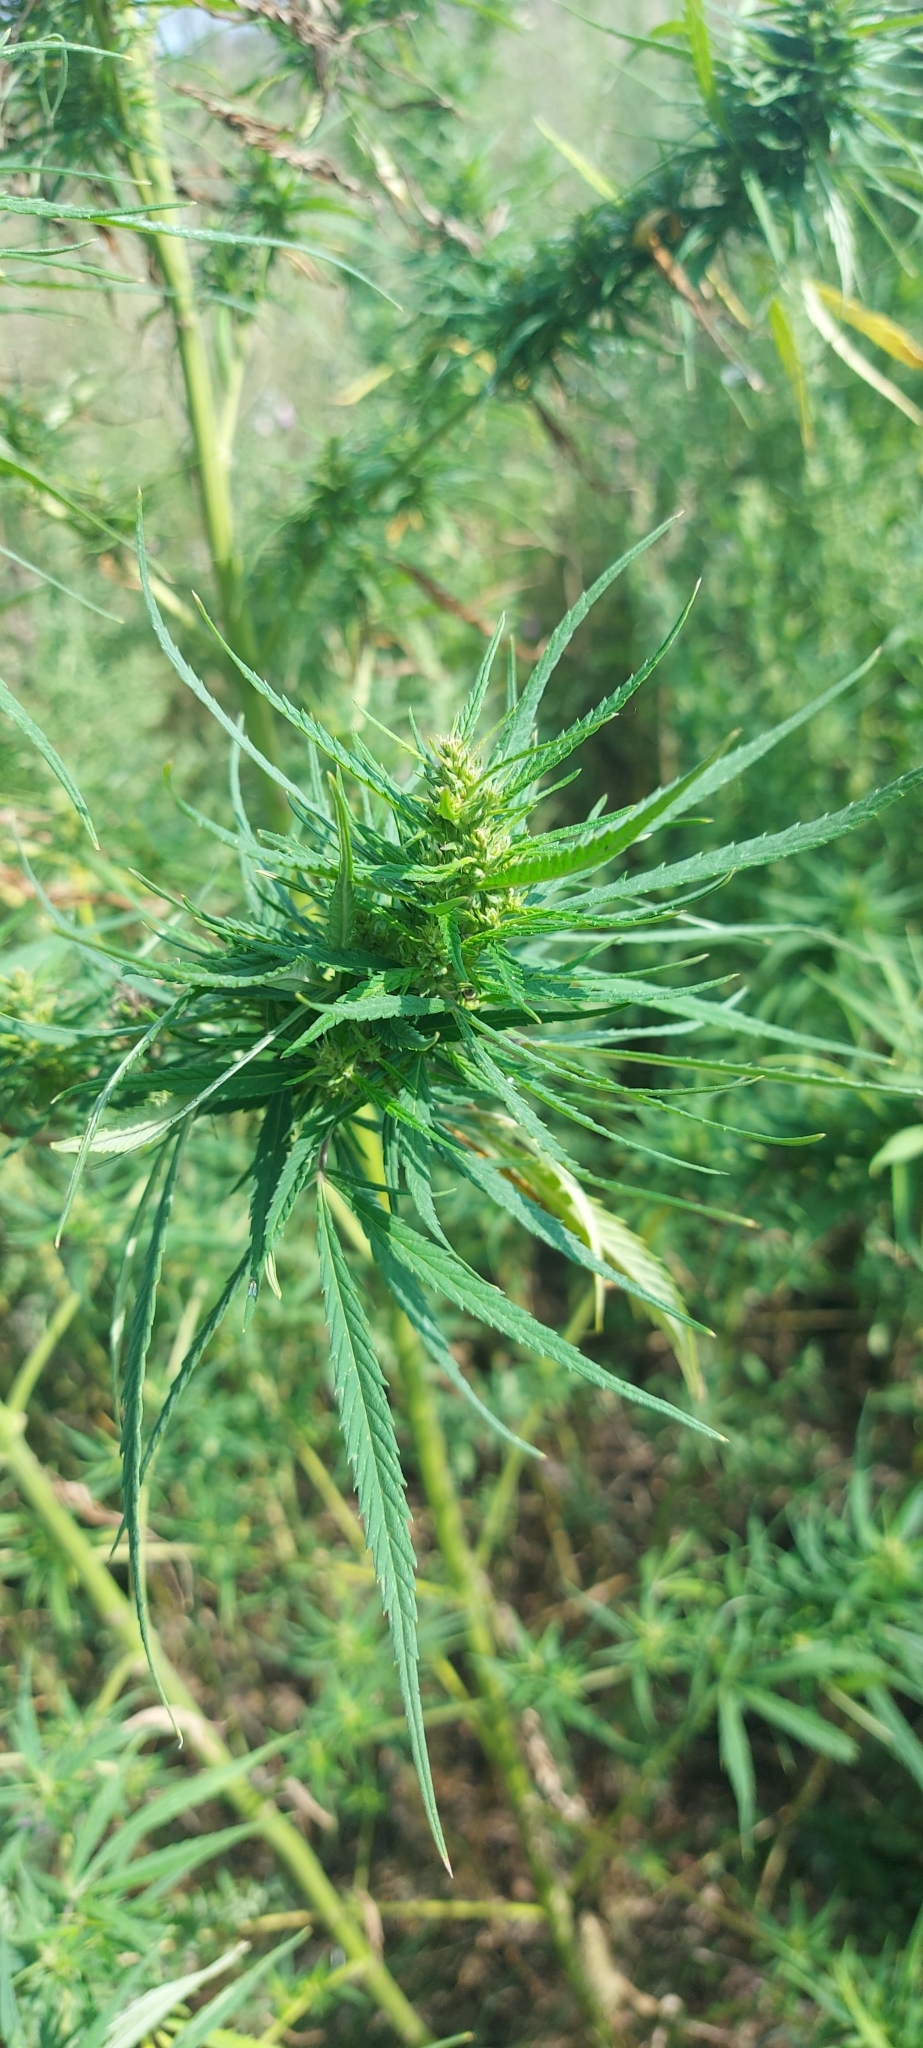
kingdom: Plantae
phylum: Tracheophyta
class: Magnoliopsida
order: Rosales
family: Cannabaceae
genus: Cannabis
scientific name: Cannabis sativa
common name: Hemp
